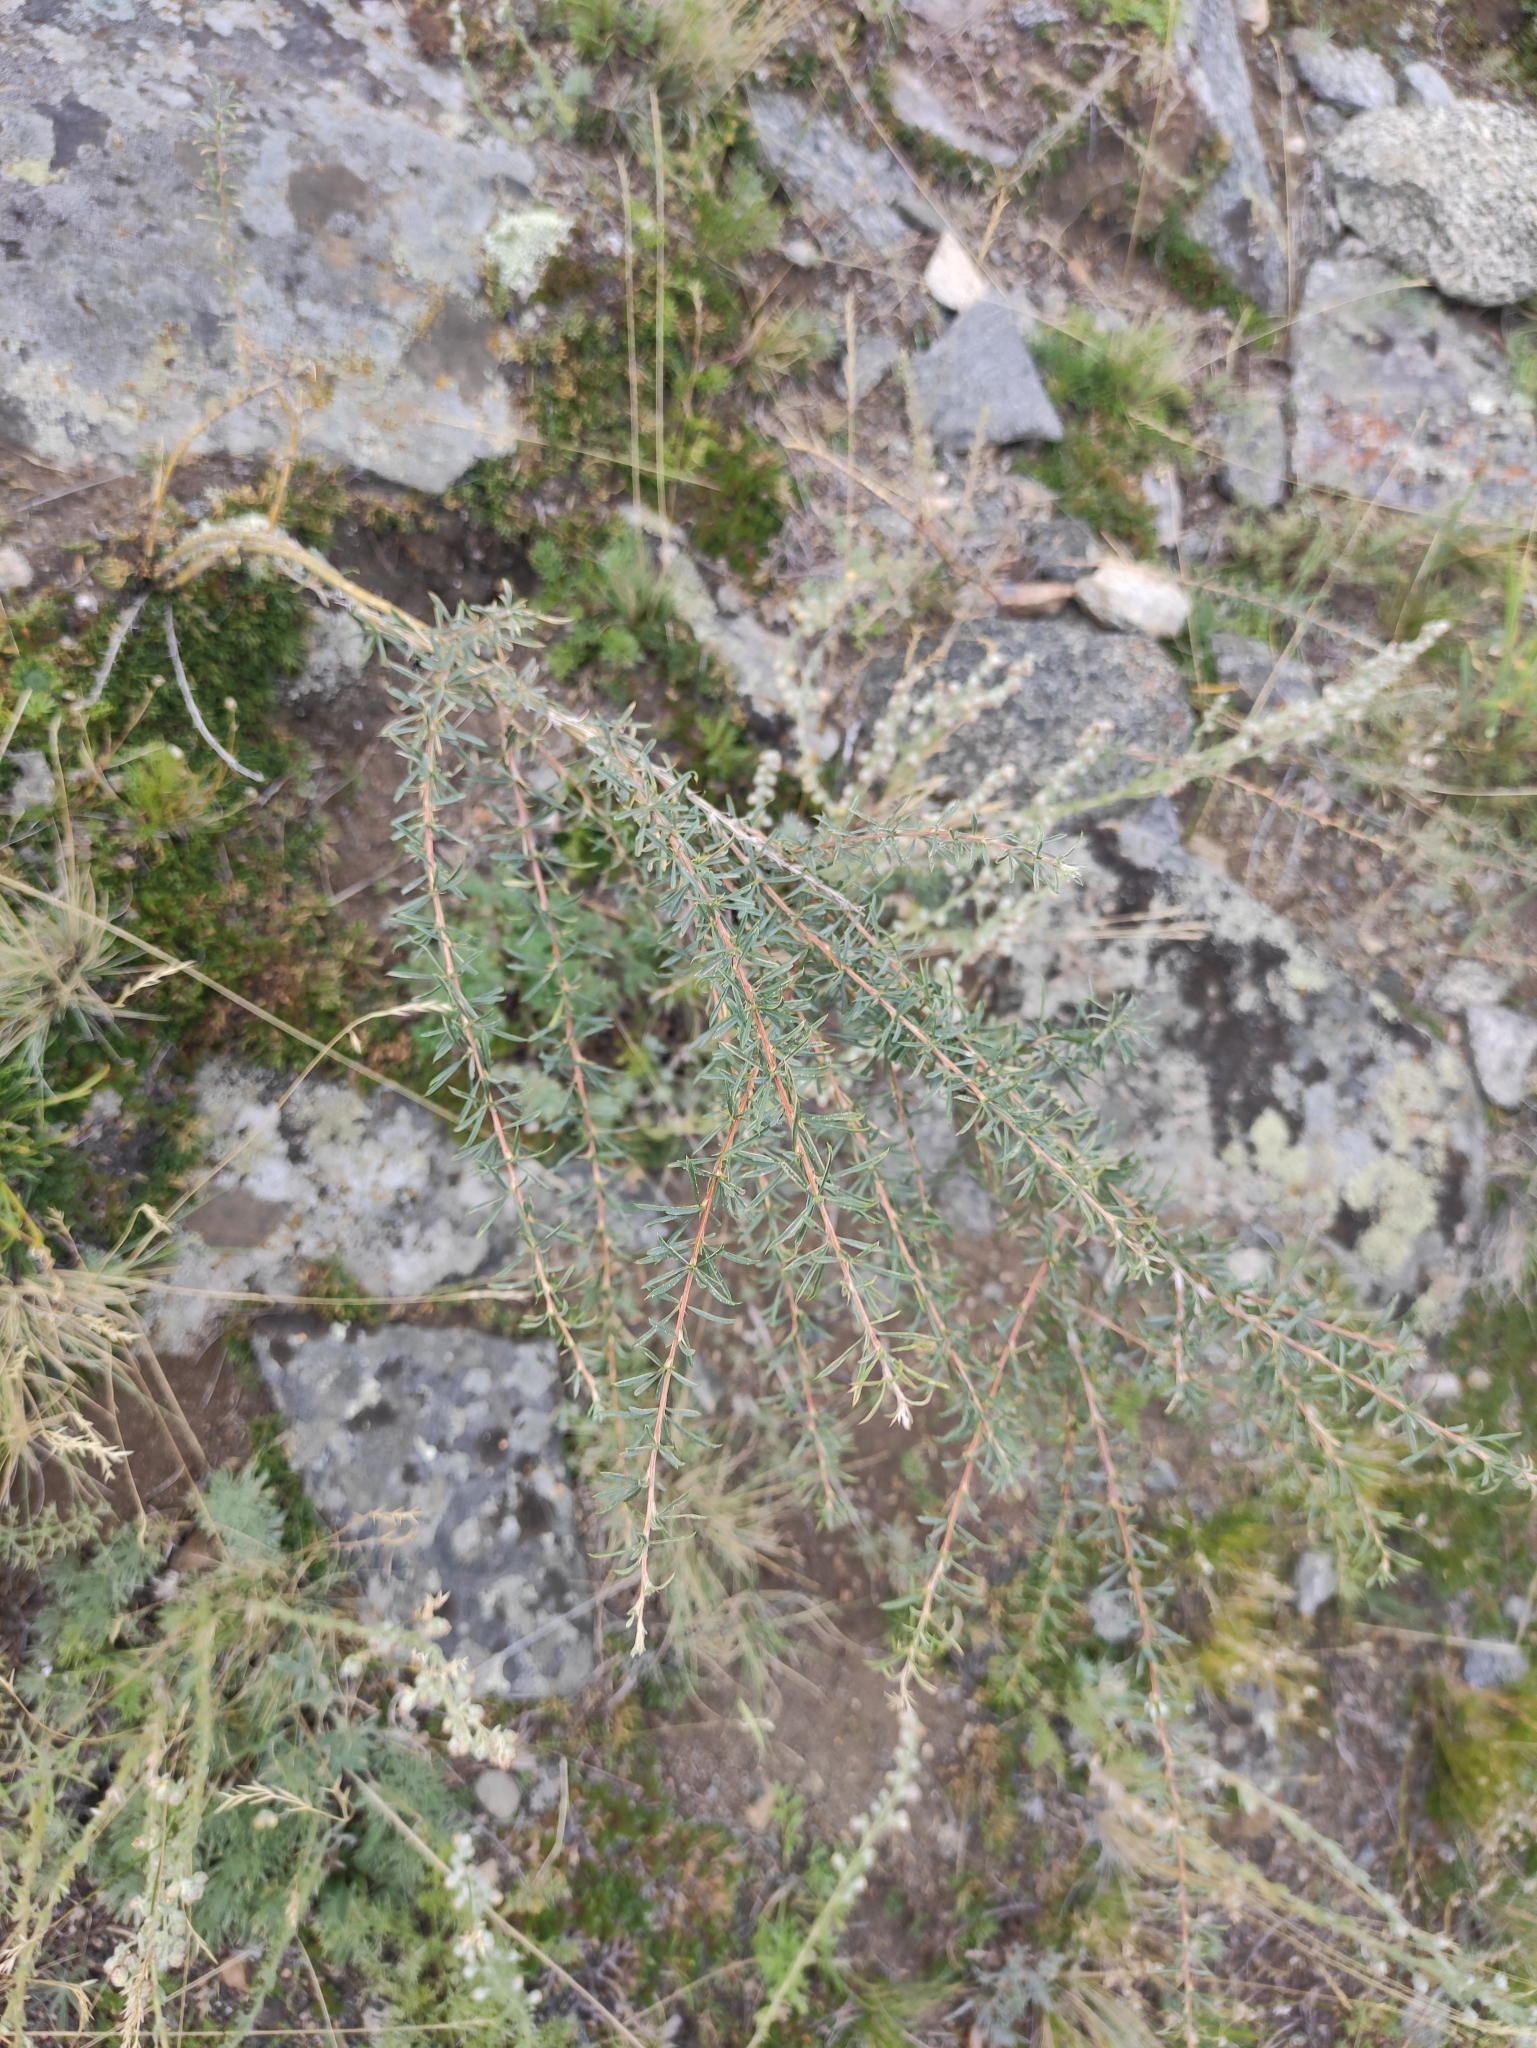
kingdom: Plantae
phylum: Tracheophyta
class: Magnoliopsida
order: Fabales
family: Fabaceae
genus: Caragana
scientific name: Caragana pygmaea
